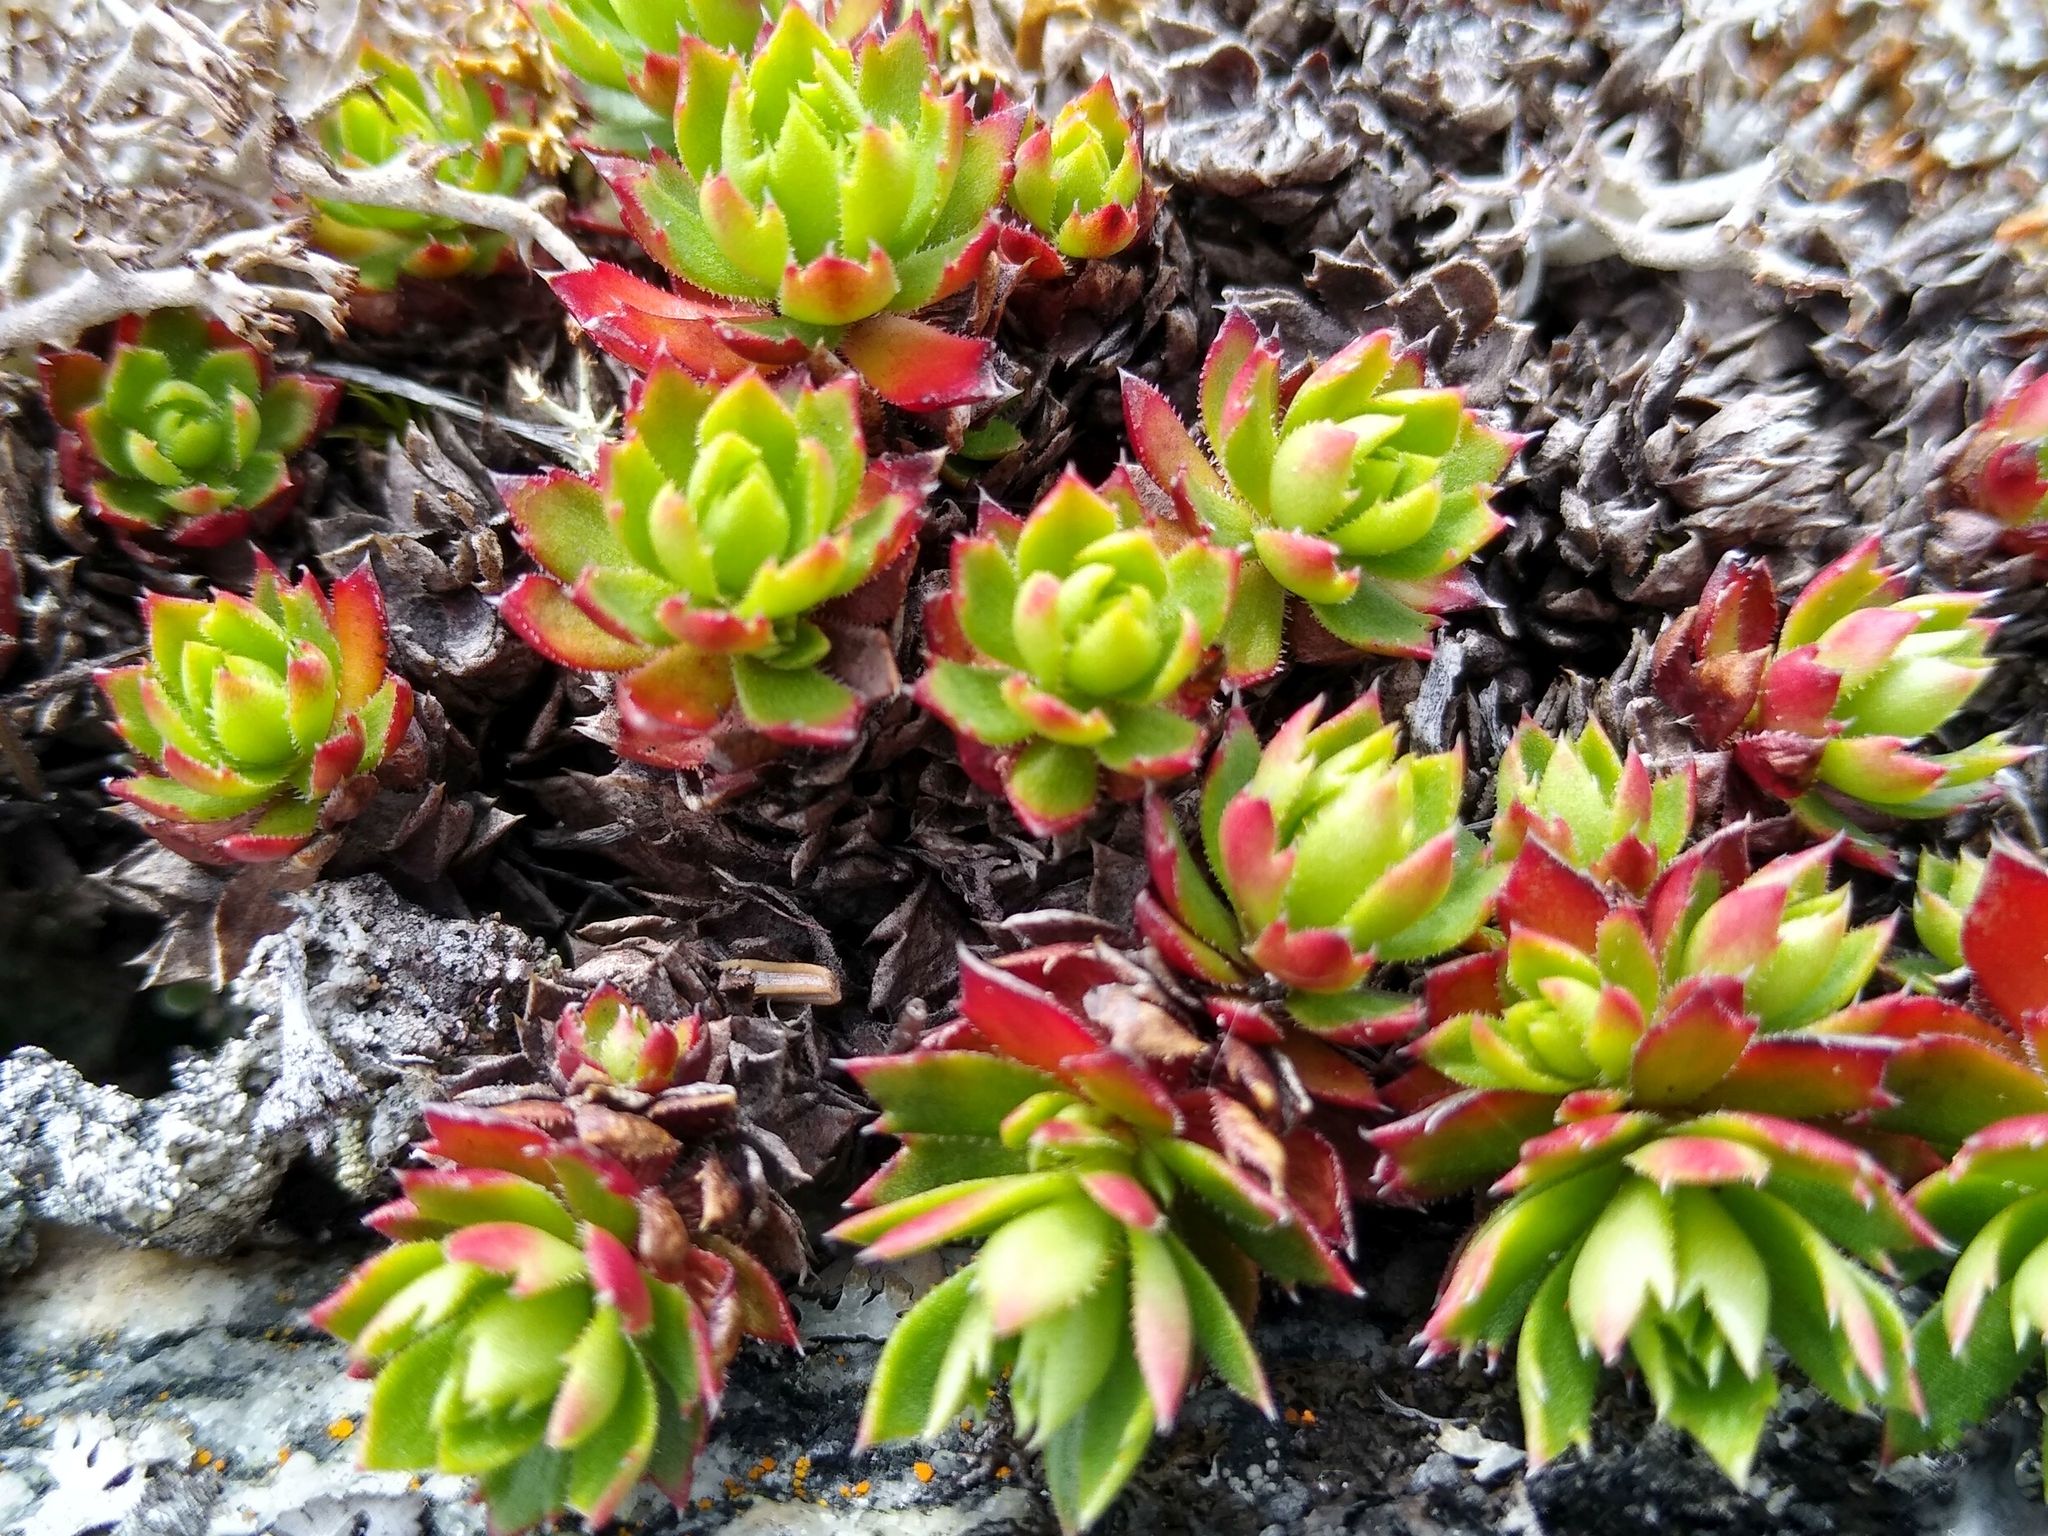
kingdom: Plantae
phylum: Tracheophyta
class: Magnoliopsida
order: Saxifragales
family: Saxifragaceae
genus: Saxifraga
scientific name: Saxifraga tricuspidata
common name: Prickly saxifrage
